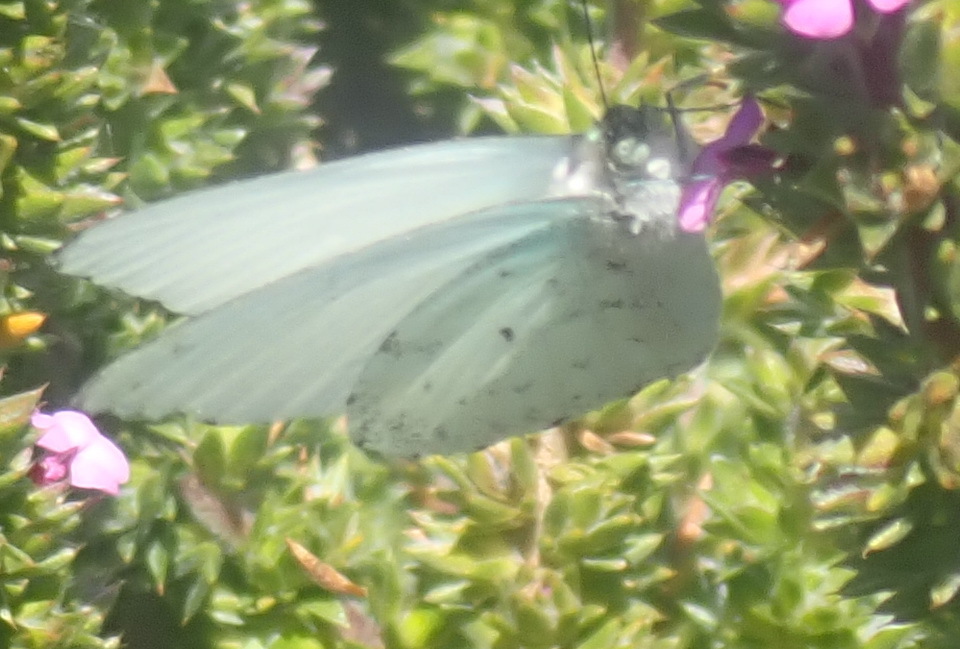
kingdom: Animalia
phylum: Arthropoda
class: Insecta
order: Lepidoptera
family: Pieridae
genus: Dixeia
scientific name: Dixeia charina
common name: African small white
